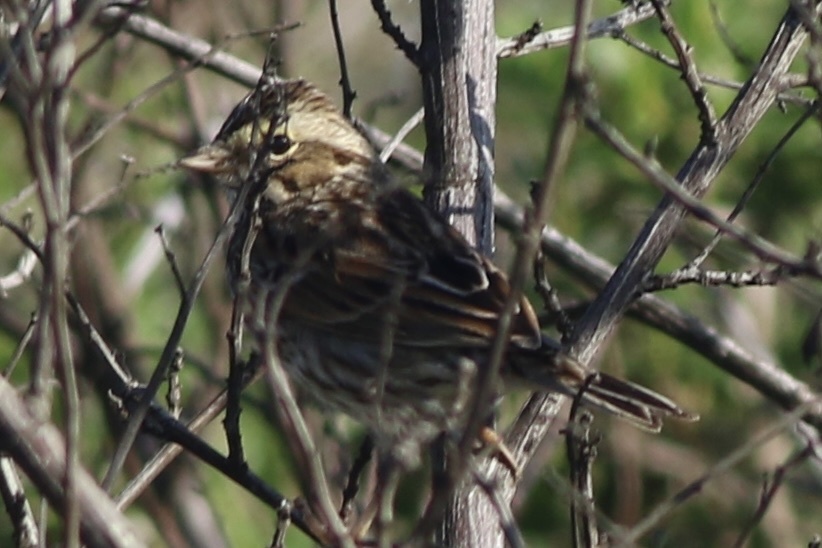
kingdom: Animalia
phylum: Chordata
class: Aves
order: Passeriformes
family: Passerellidae
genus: Passerculus
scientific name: Passerculus sandwichensis
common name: Savannah sparrow
